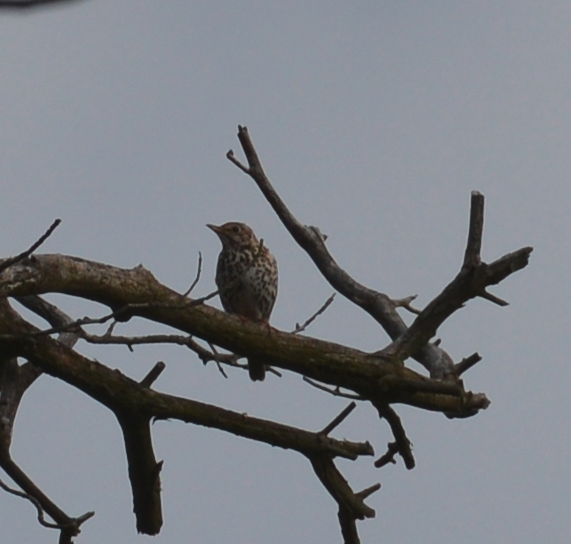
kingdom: Animalia
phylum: Chordata
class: Aves
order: Passeriformes
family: Turdidae
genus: Turdus
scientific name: Turdus philomelos
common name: Song thrush
